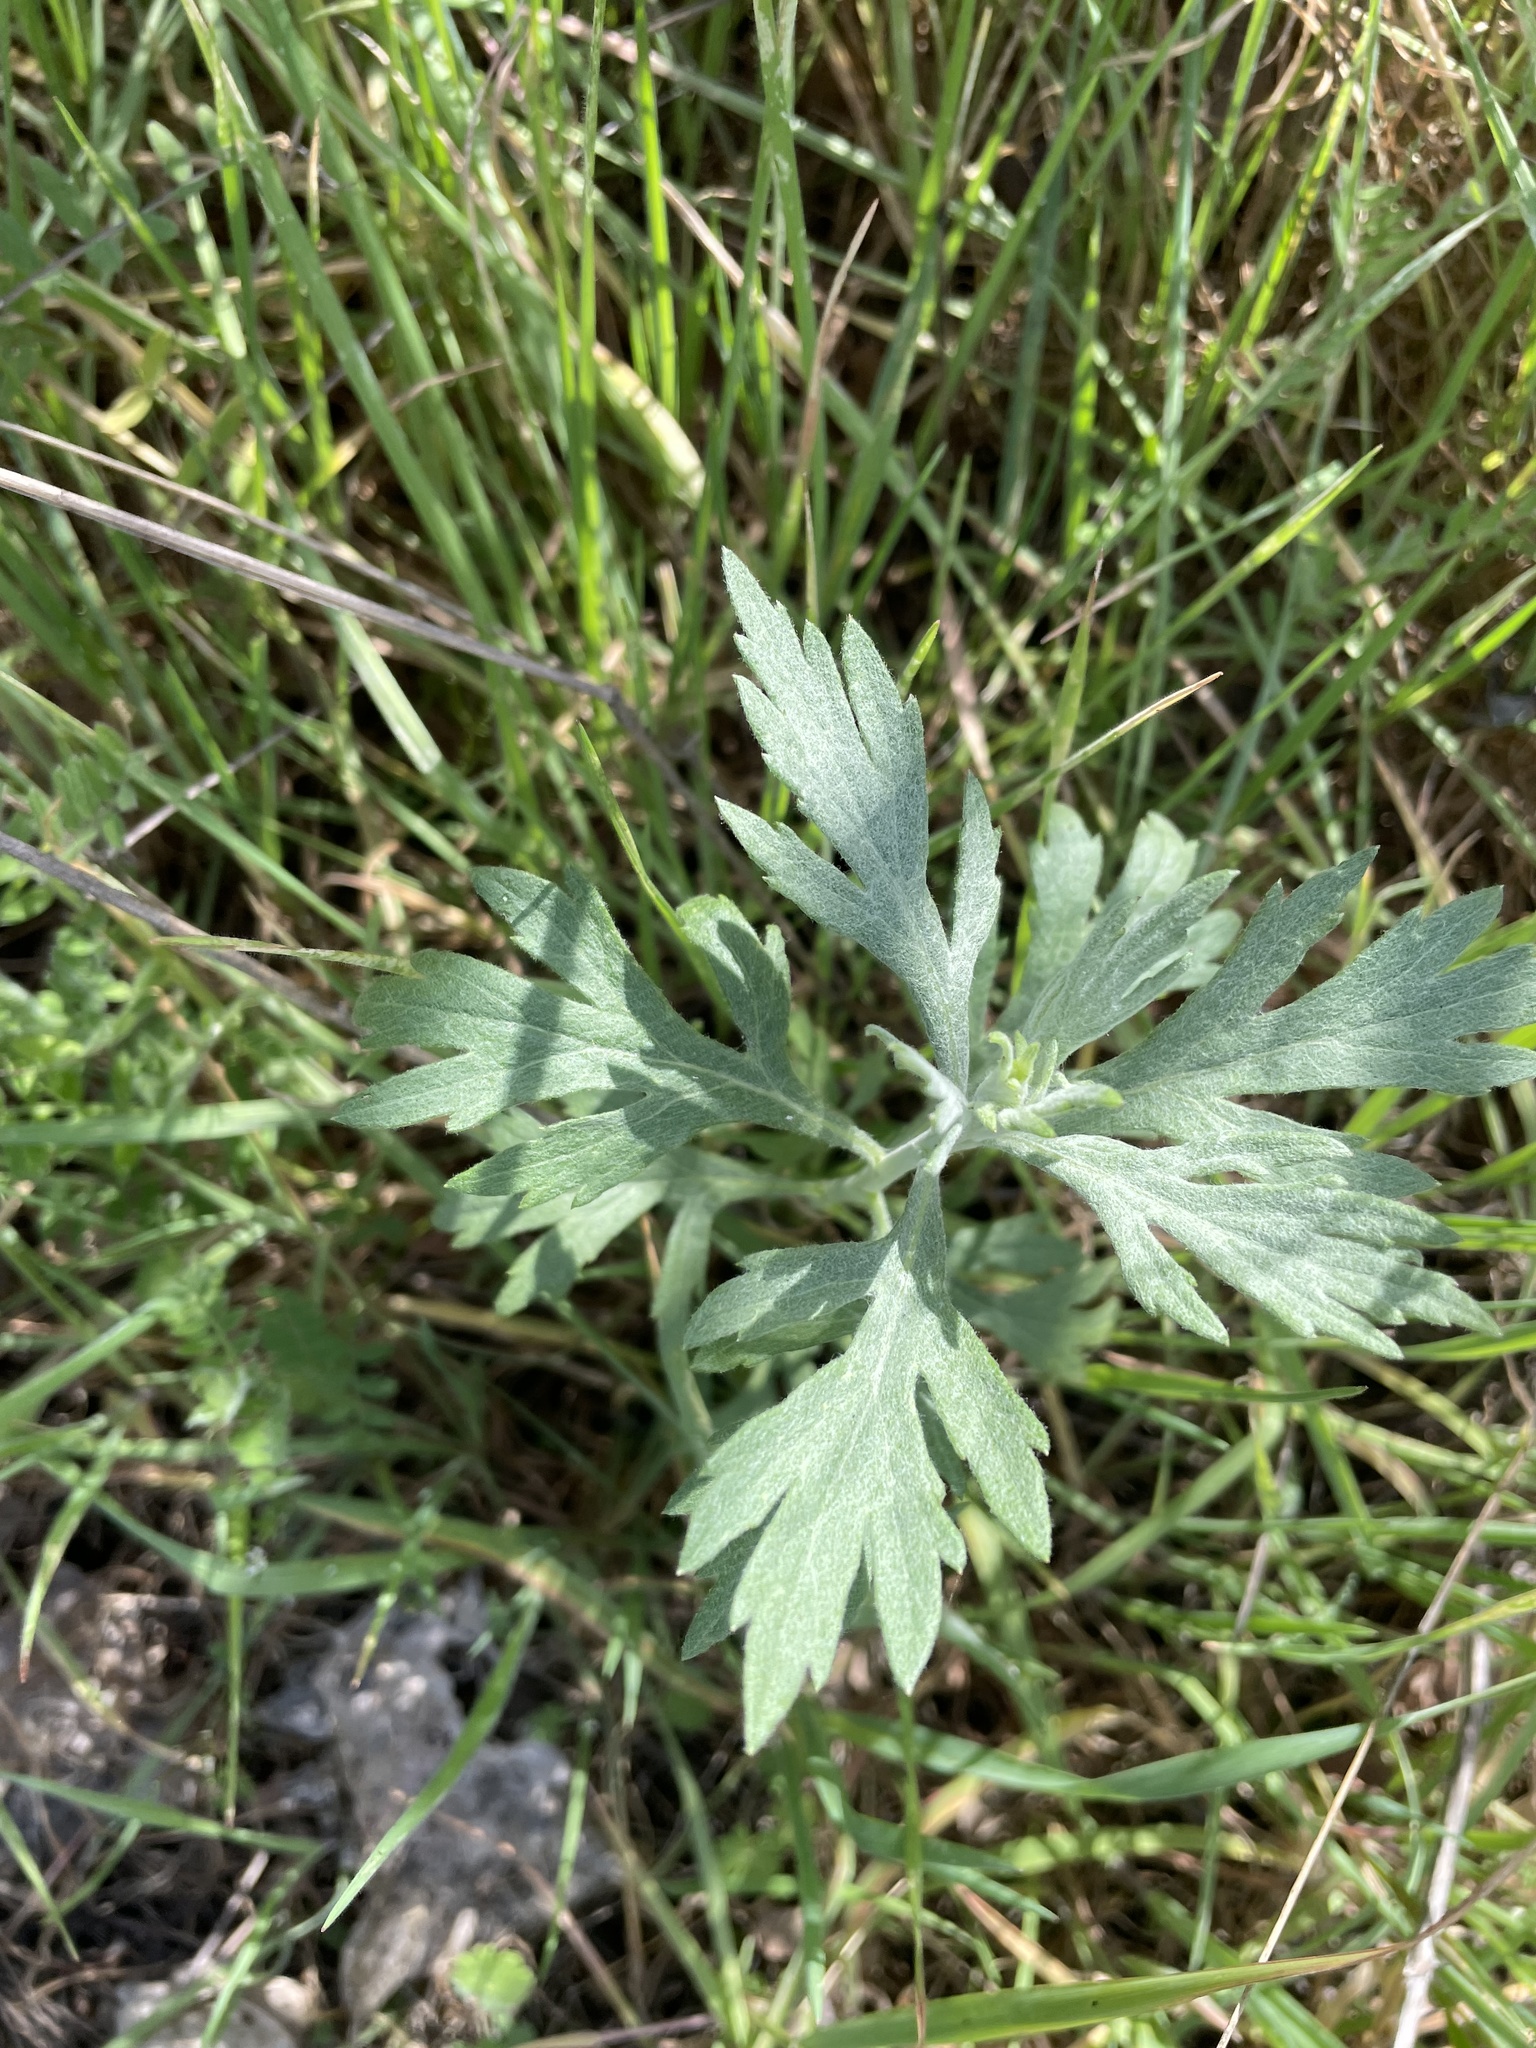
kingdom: Plantae
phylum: Tracheophyta
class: Magnoliopsida
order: Asterales
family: Asteraceae
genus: Artemisia
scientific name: Artemisia douglasiana
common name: Northwest mugwort
